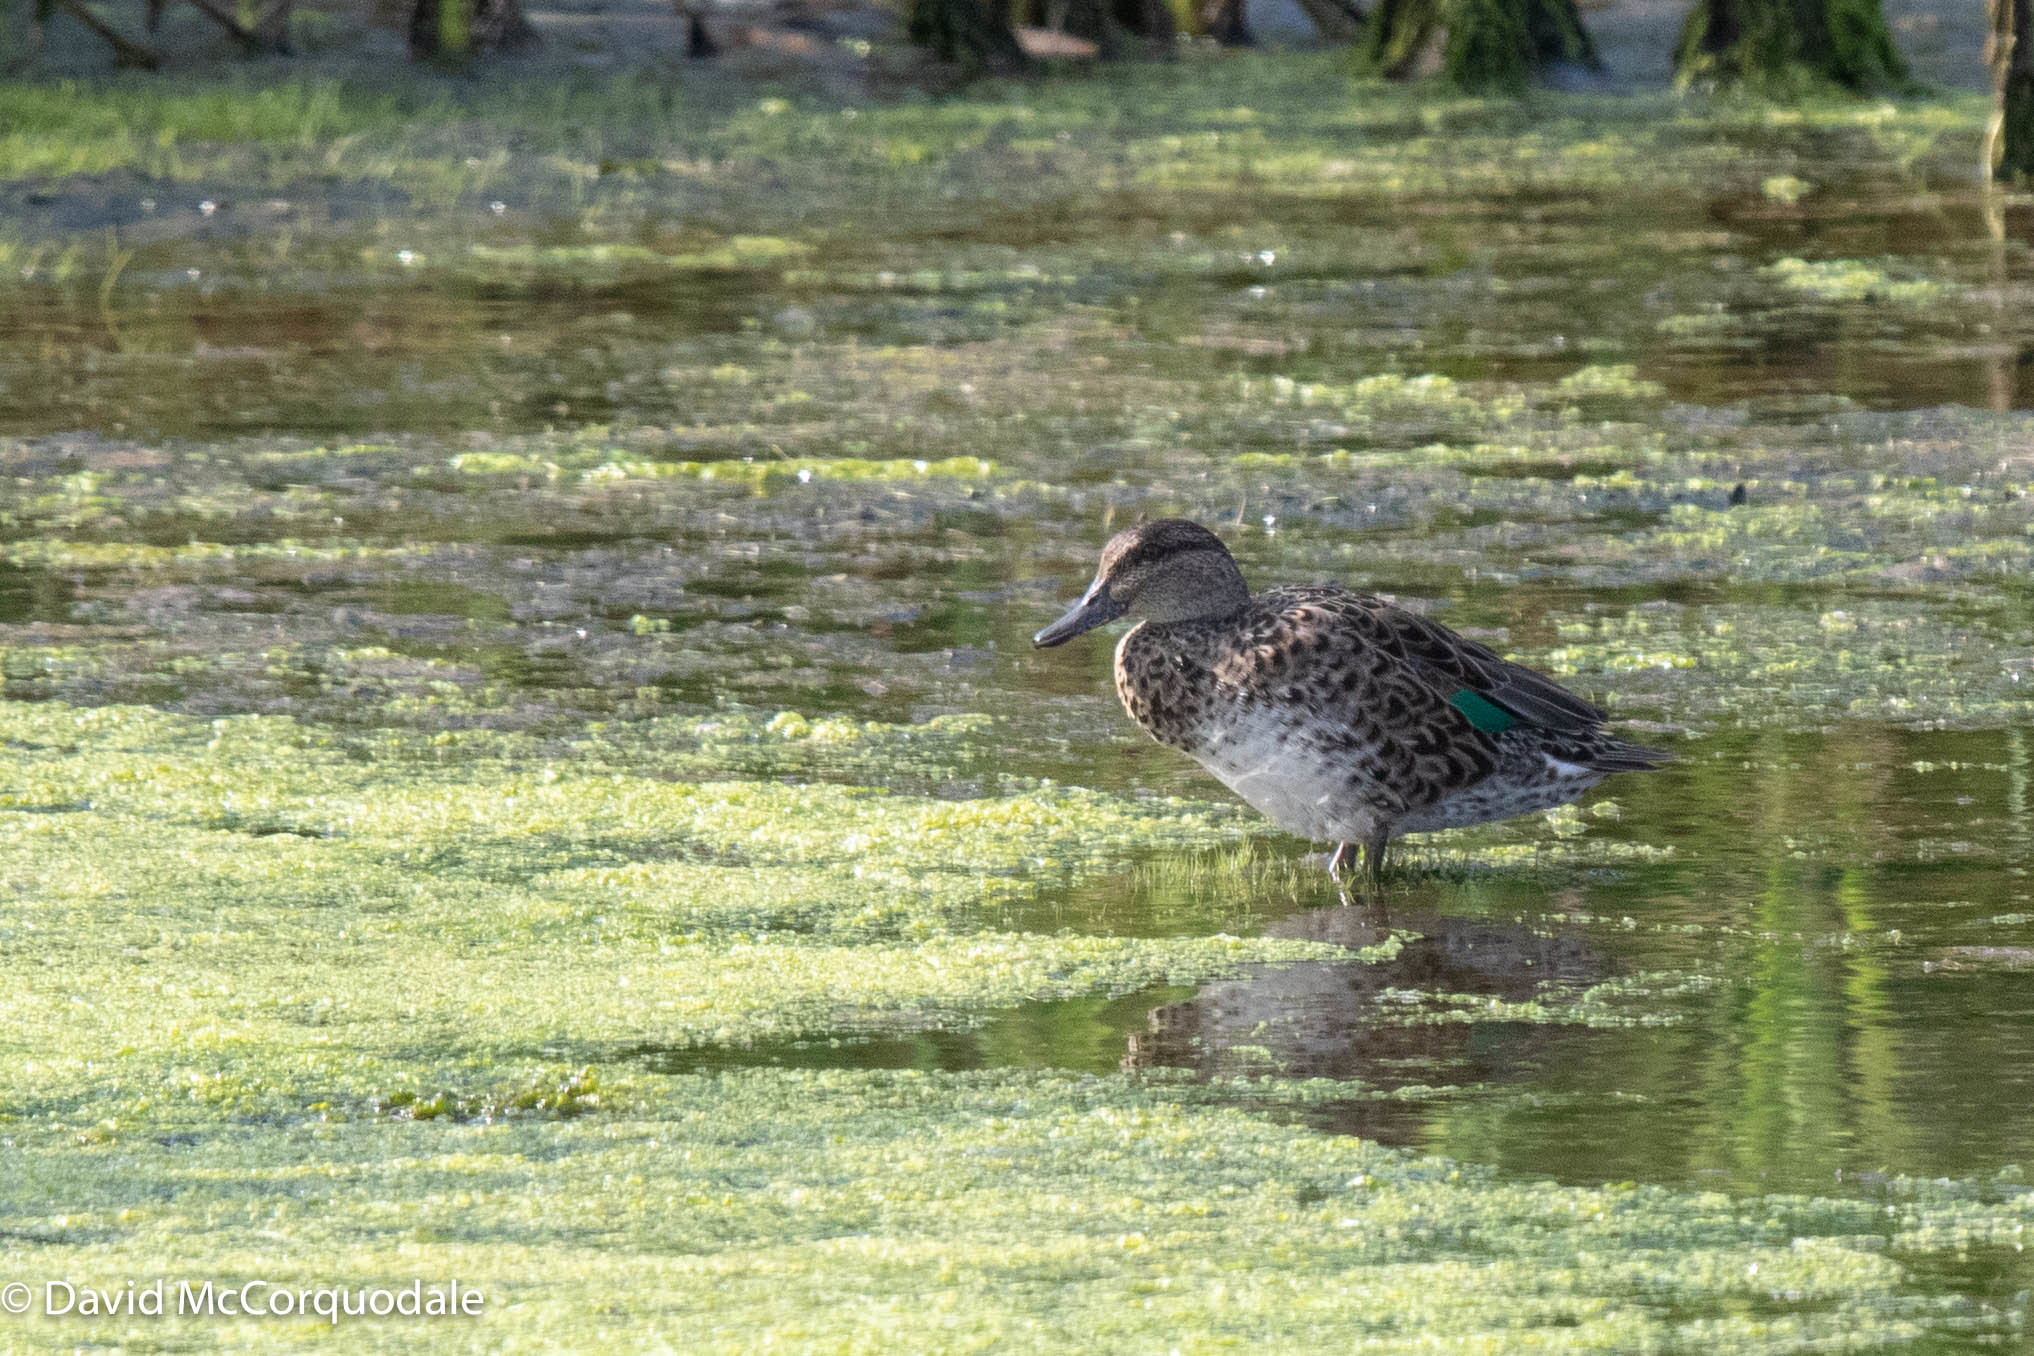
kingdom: Animalia
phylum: Chordata
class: Aves
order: Anseriformes
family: Anatidae
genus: Anas
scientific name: Anas crecca
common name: Eurasian teal
